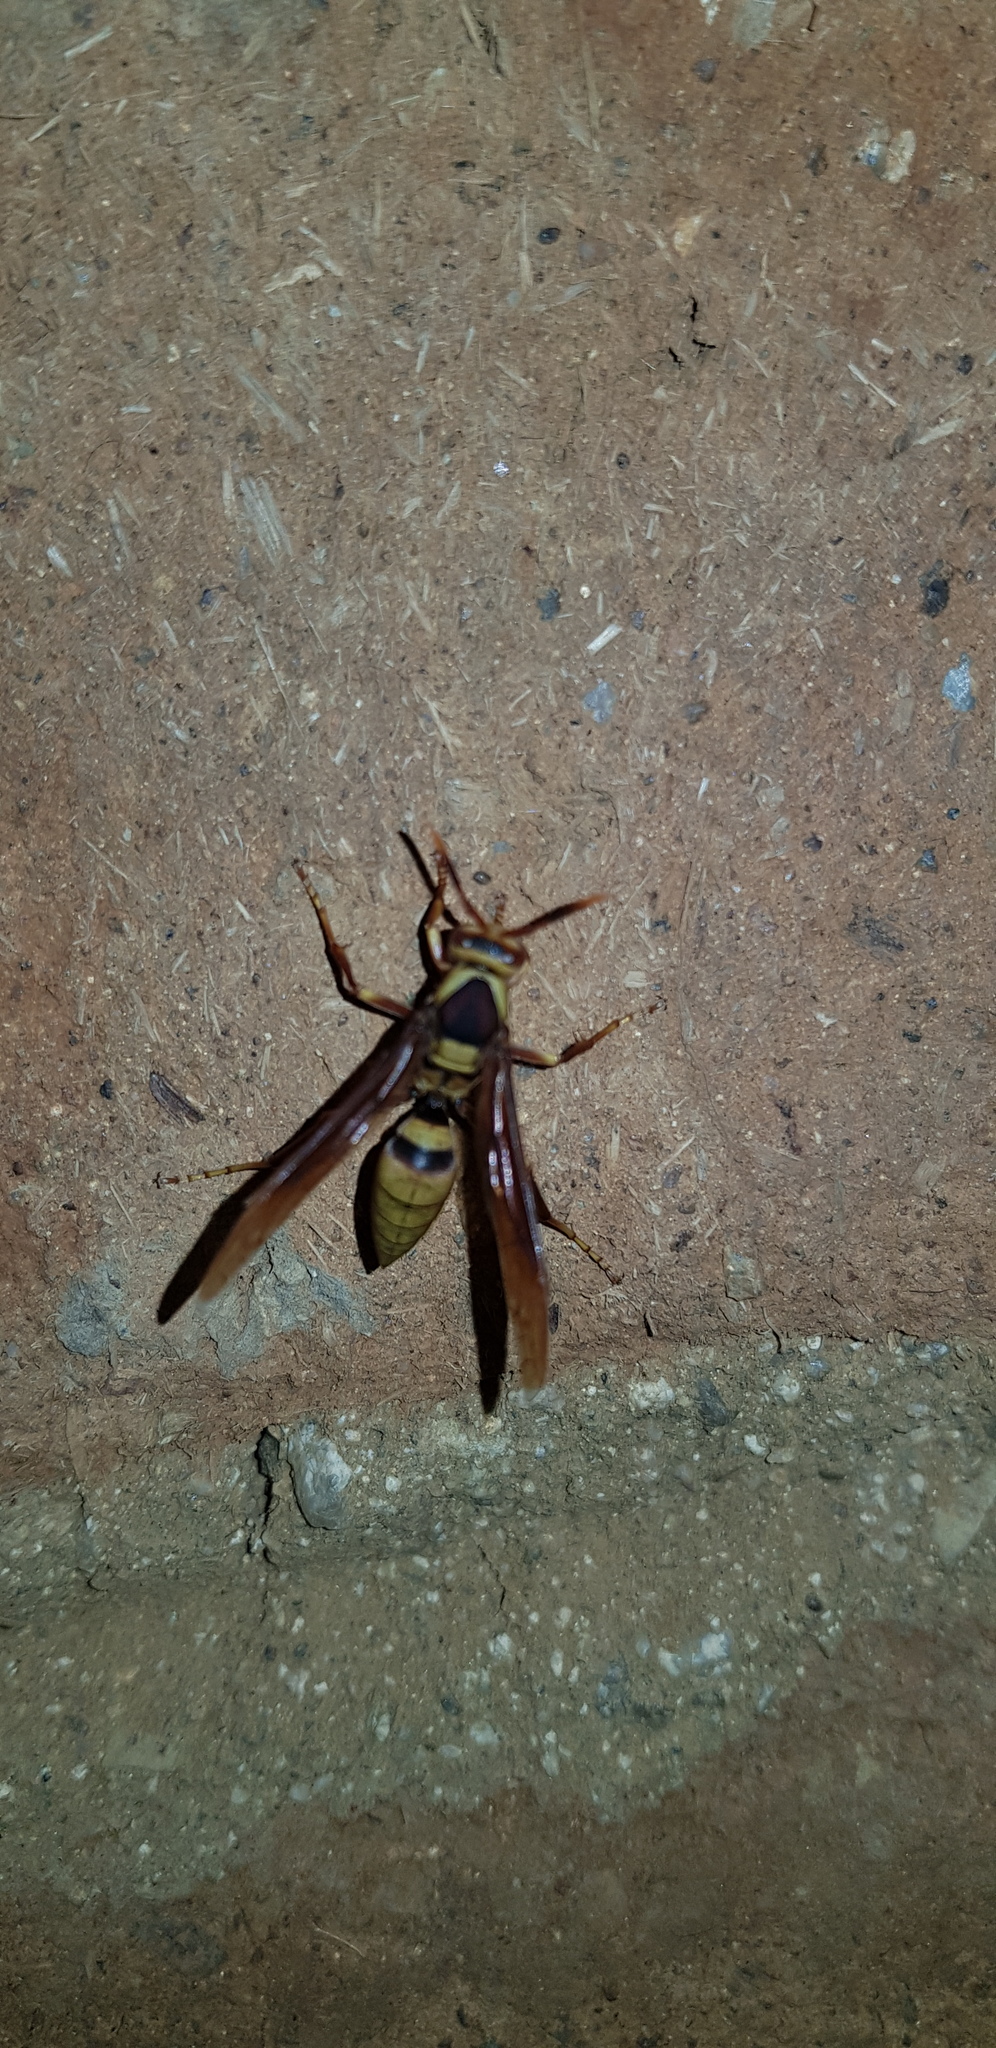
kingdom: Animalia
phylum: Arthropoda
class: Insecta
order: Hymenoptera
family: Eumenidae
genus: Polistes
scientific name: Polistes major
